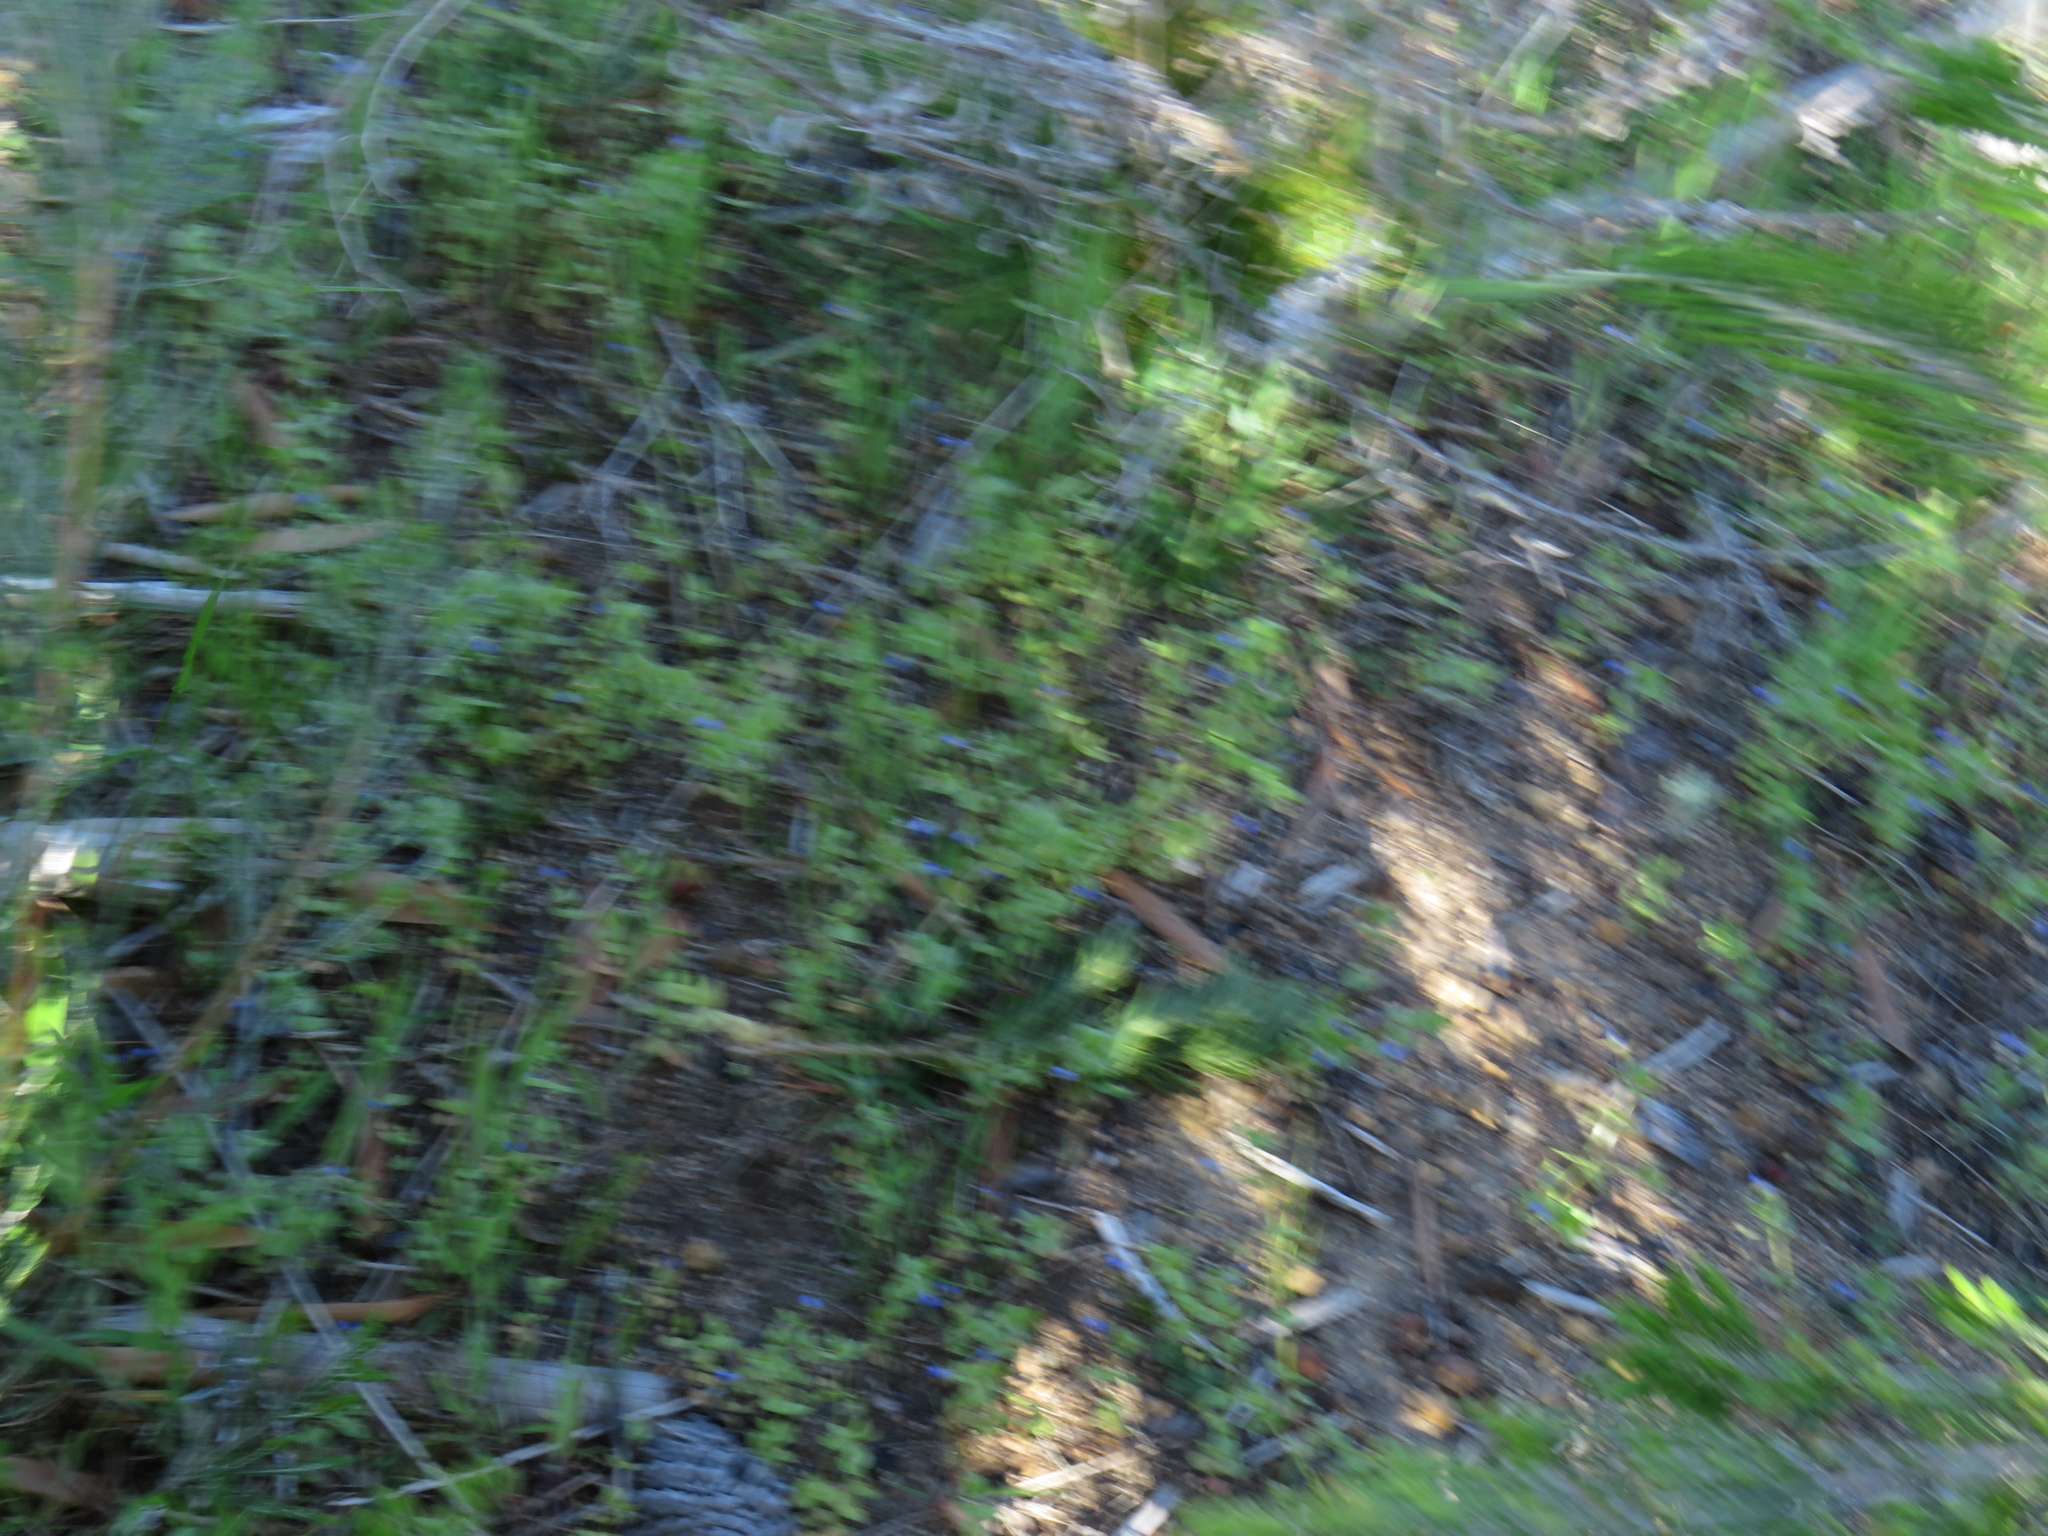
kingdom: Plantae
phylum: Tracheophyta
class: Magnoliopsida
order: Ericales
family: Primulaceae
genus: Lysimachia
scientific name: Lysimachia loeflingii
